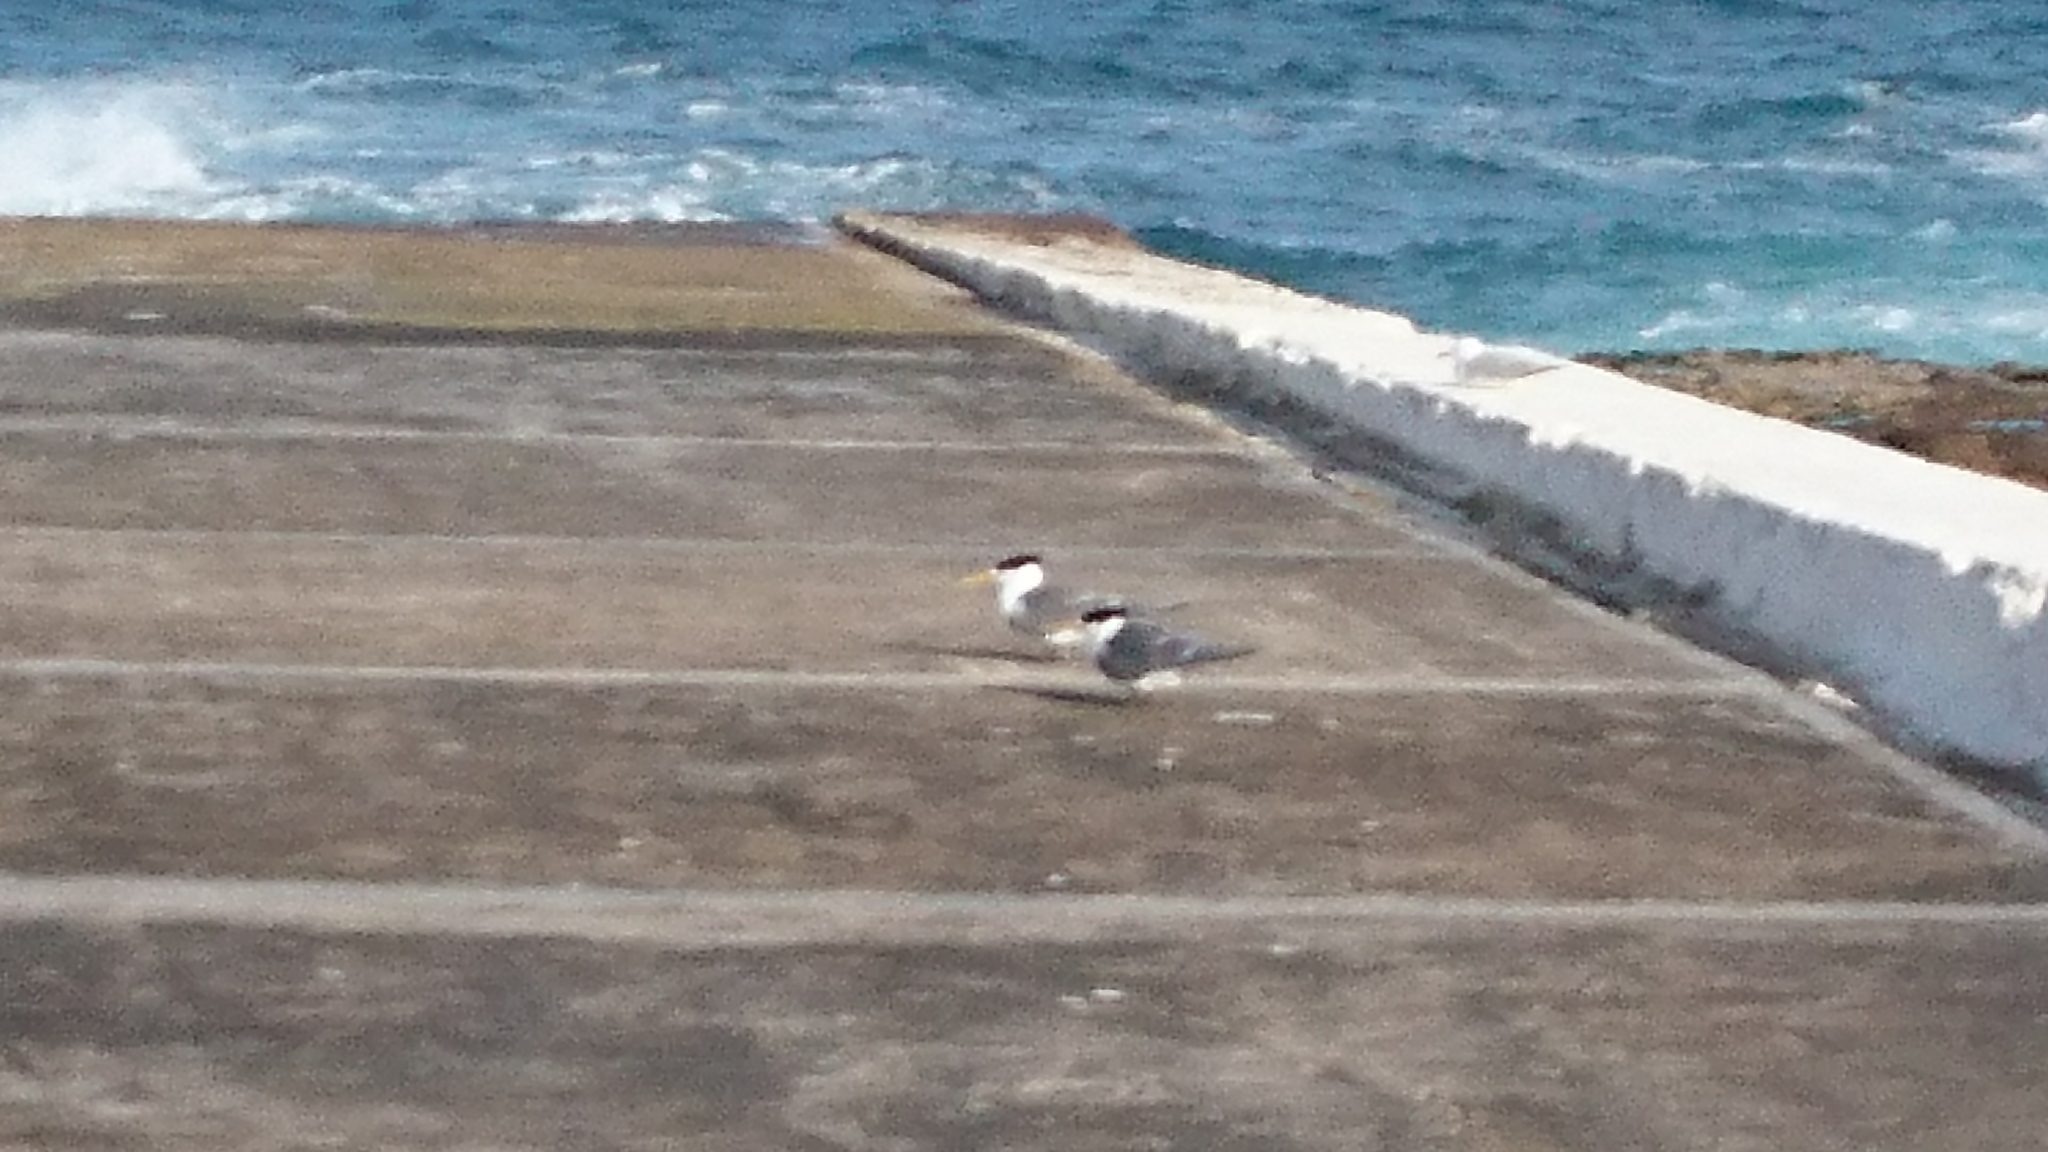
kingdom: Animalia
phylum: Chordata
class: Aves
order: Charadriiformes
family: Laridae
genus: Thalasseus
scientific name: Thalasseus bergii
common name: Greater crested tern
